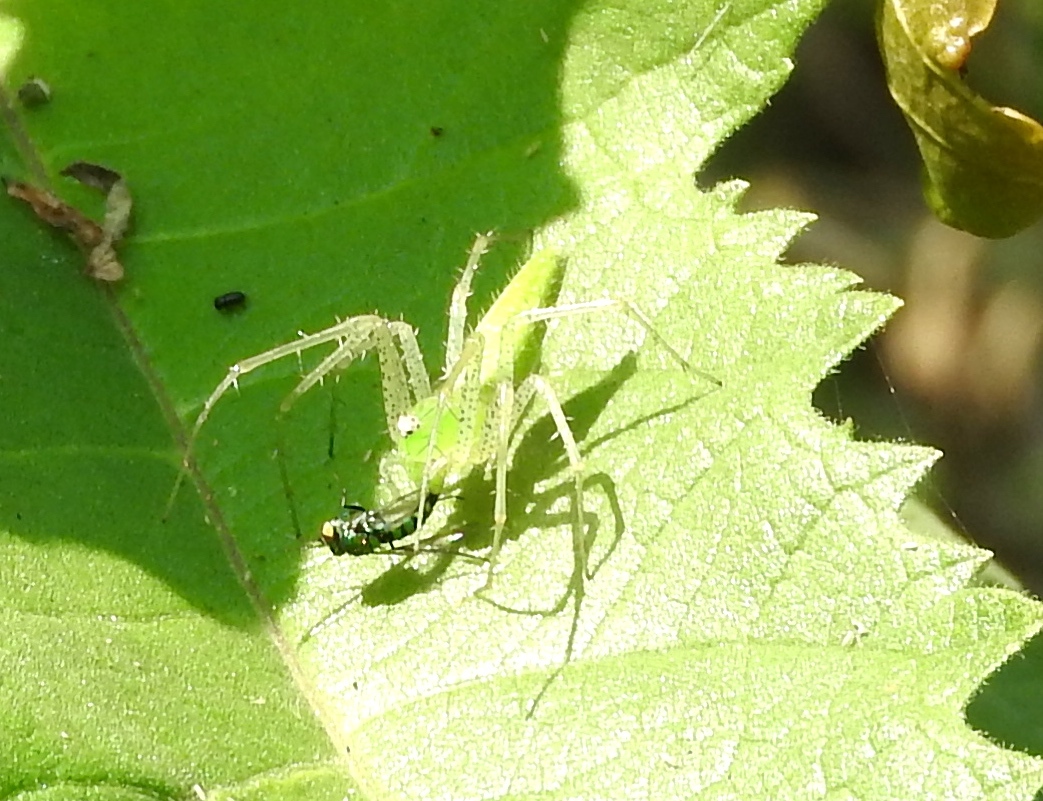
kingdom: Animalia
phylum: Arthropoda
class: Arachnida
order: Araneae
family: Oxyopidae
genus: Peucetia
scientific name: Peucetia
